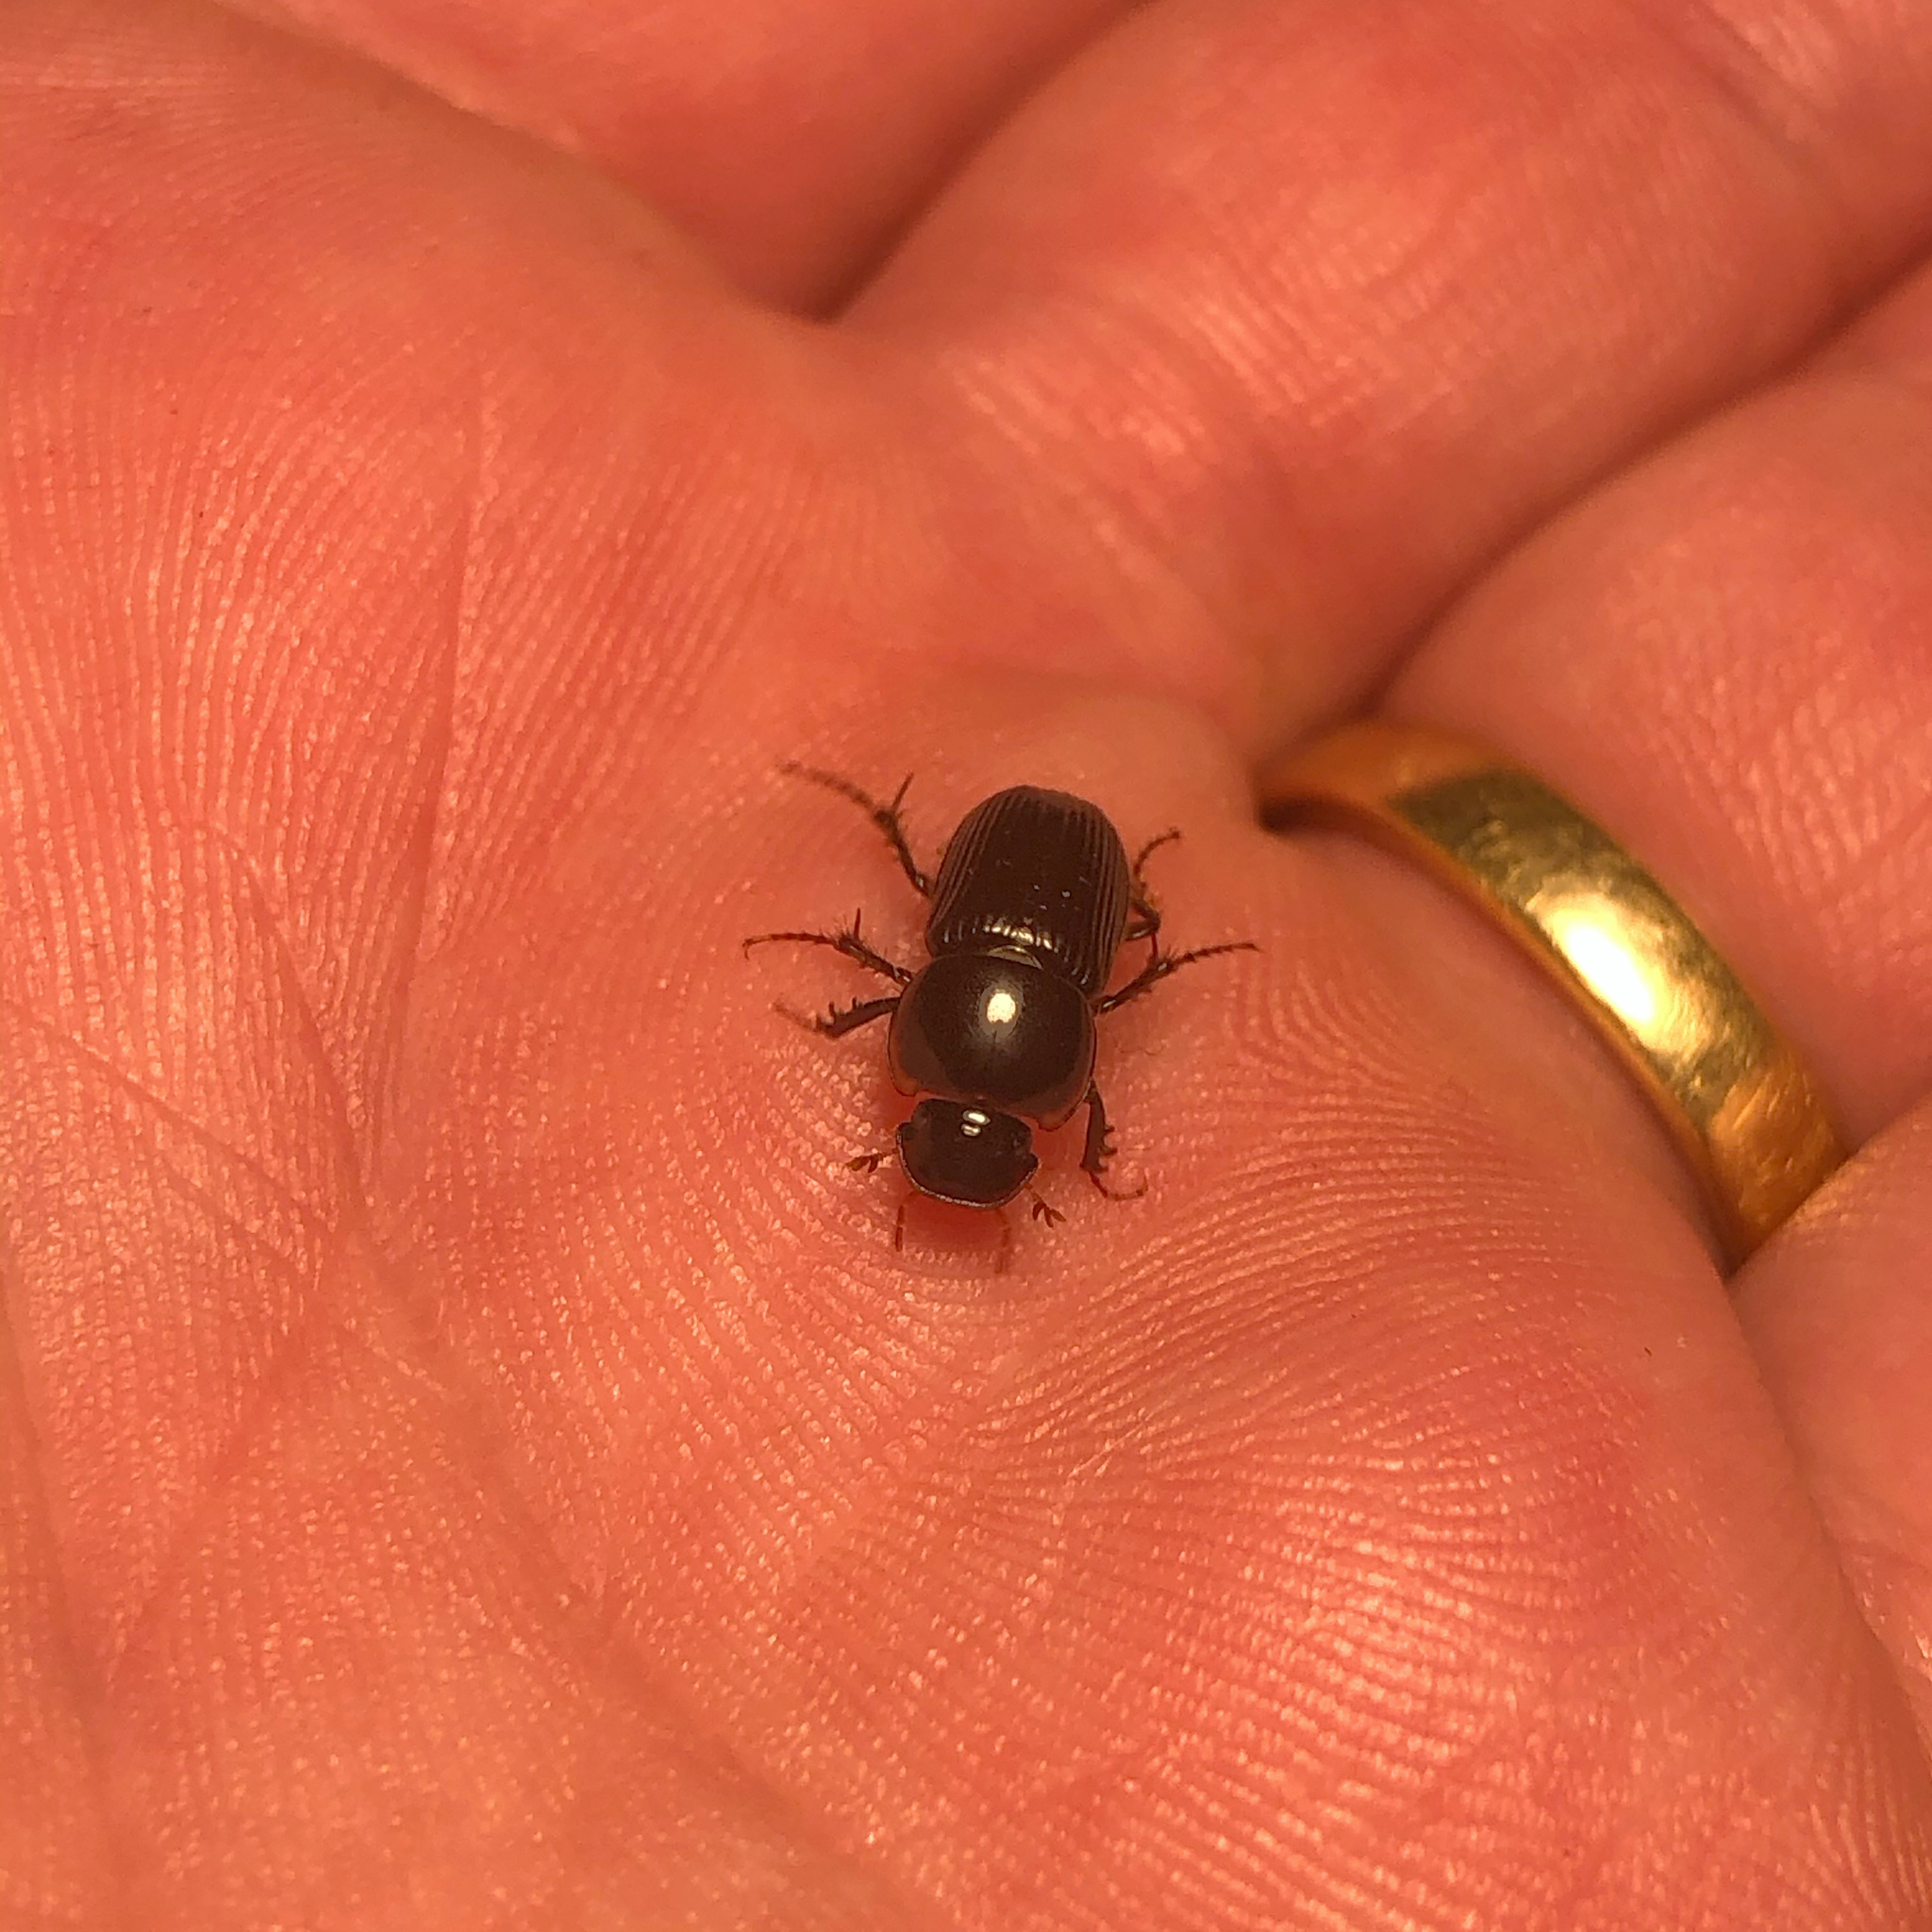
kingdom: Animalia
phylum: Arthropoda
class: Insecta
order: Coleoptera
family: Scarabaeidae
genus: Acrossidius
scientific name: Acrossidius tasmaniae
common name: Black-headed pasture cockchafer
